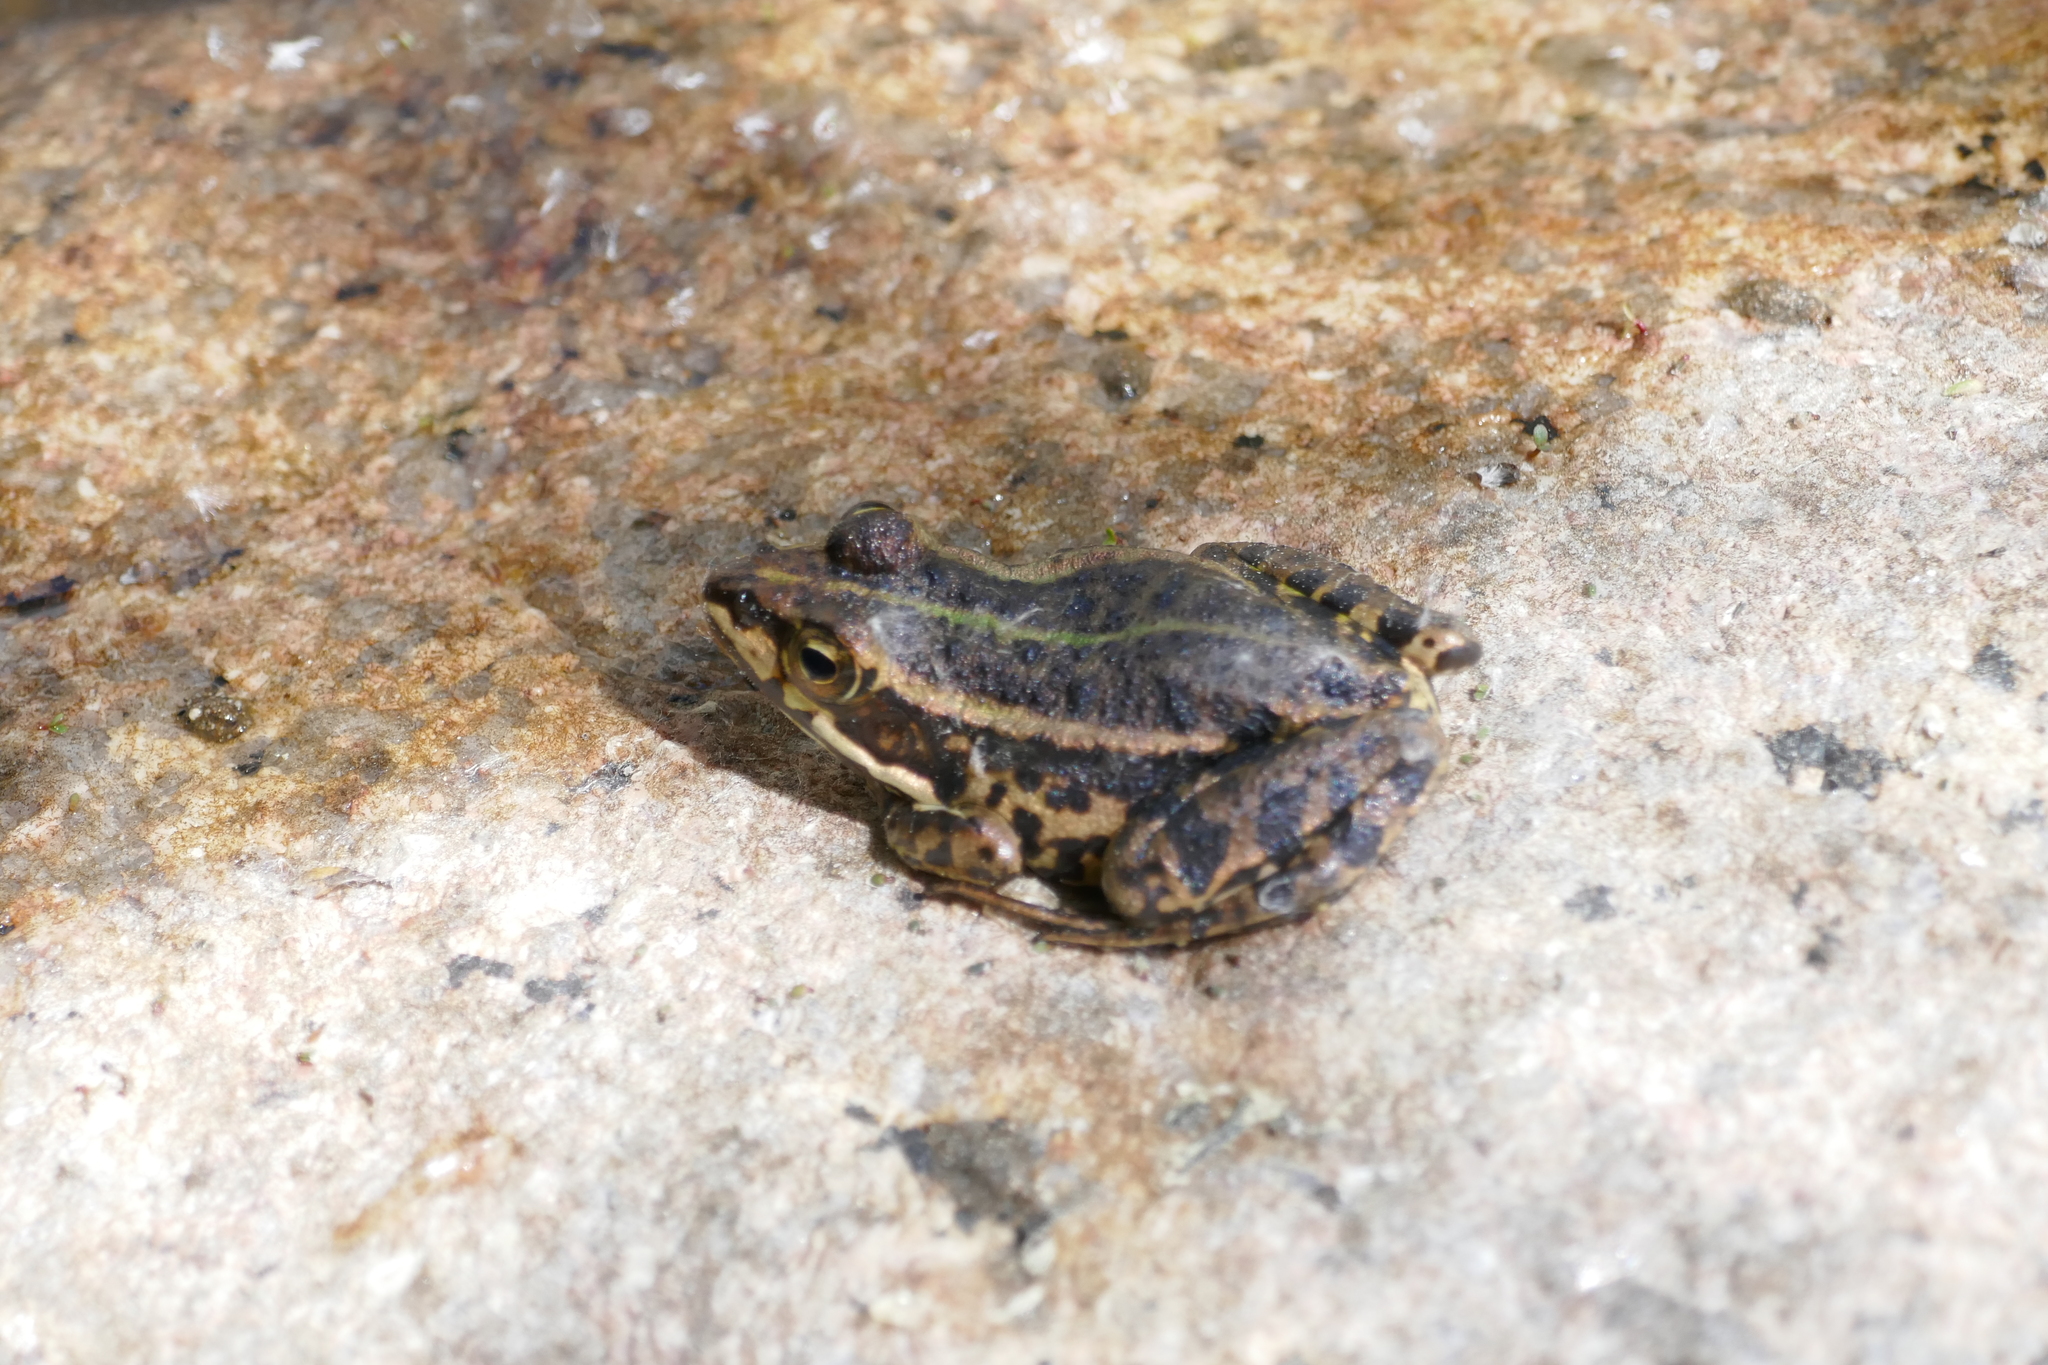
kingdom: Animalia
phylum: Chordata
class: Amphibia
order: Anura
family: Ranidae
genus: Pelophylax
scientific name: Pelophylax bergeri
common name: Italian pool frog
